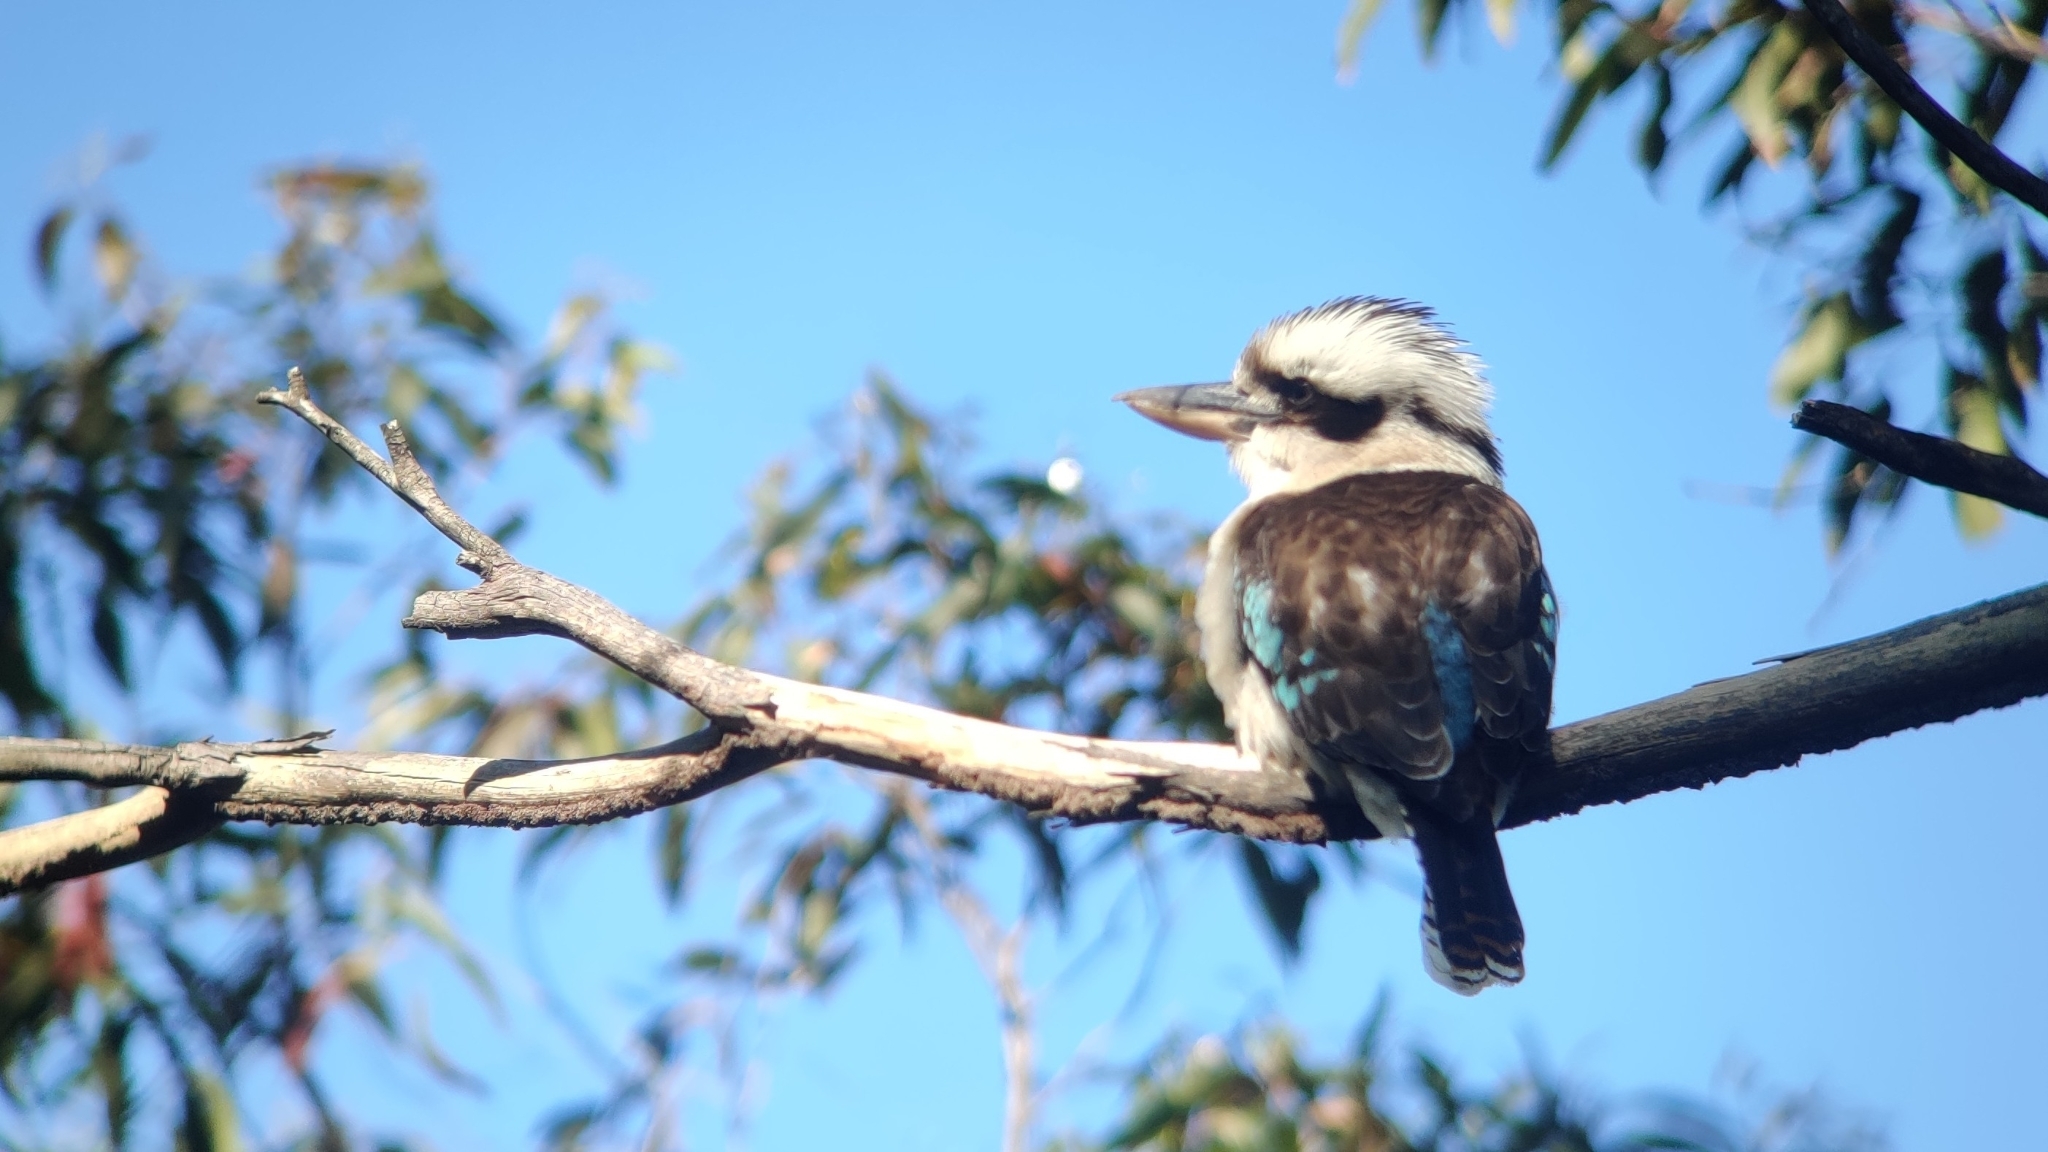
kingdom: Animalia
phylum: Chordata
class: Aves
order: Coraciiformes
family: Alcedinidae
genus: Dacelo
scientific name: Dacelo novaeguineae
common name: Laughing kookaburra
